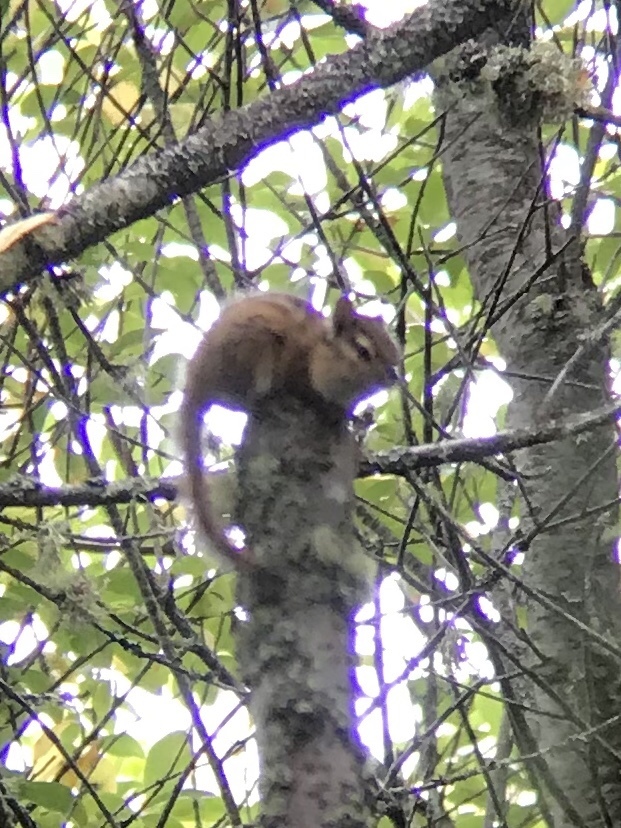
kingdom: Animalia
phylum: Chordata
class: Mammalia
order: Rodentia
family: Sciuridae
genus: Tamias
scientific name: Tamias townsendii
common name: Townsend's chipmunk
